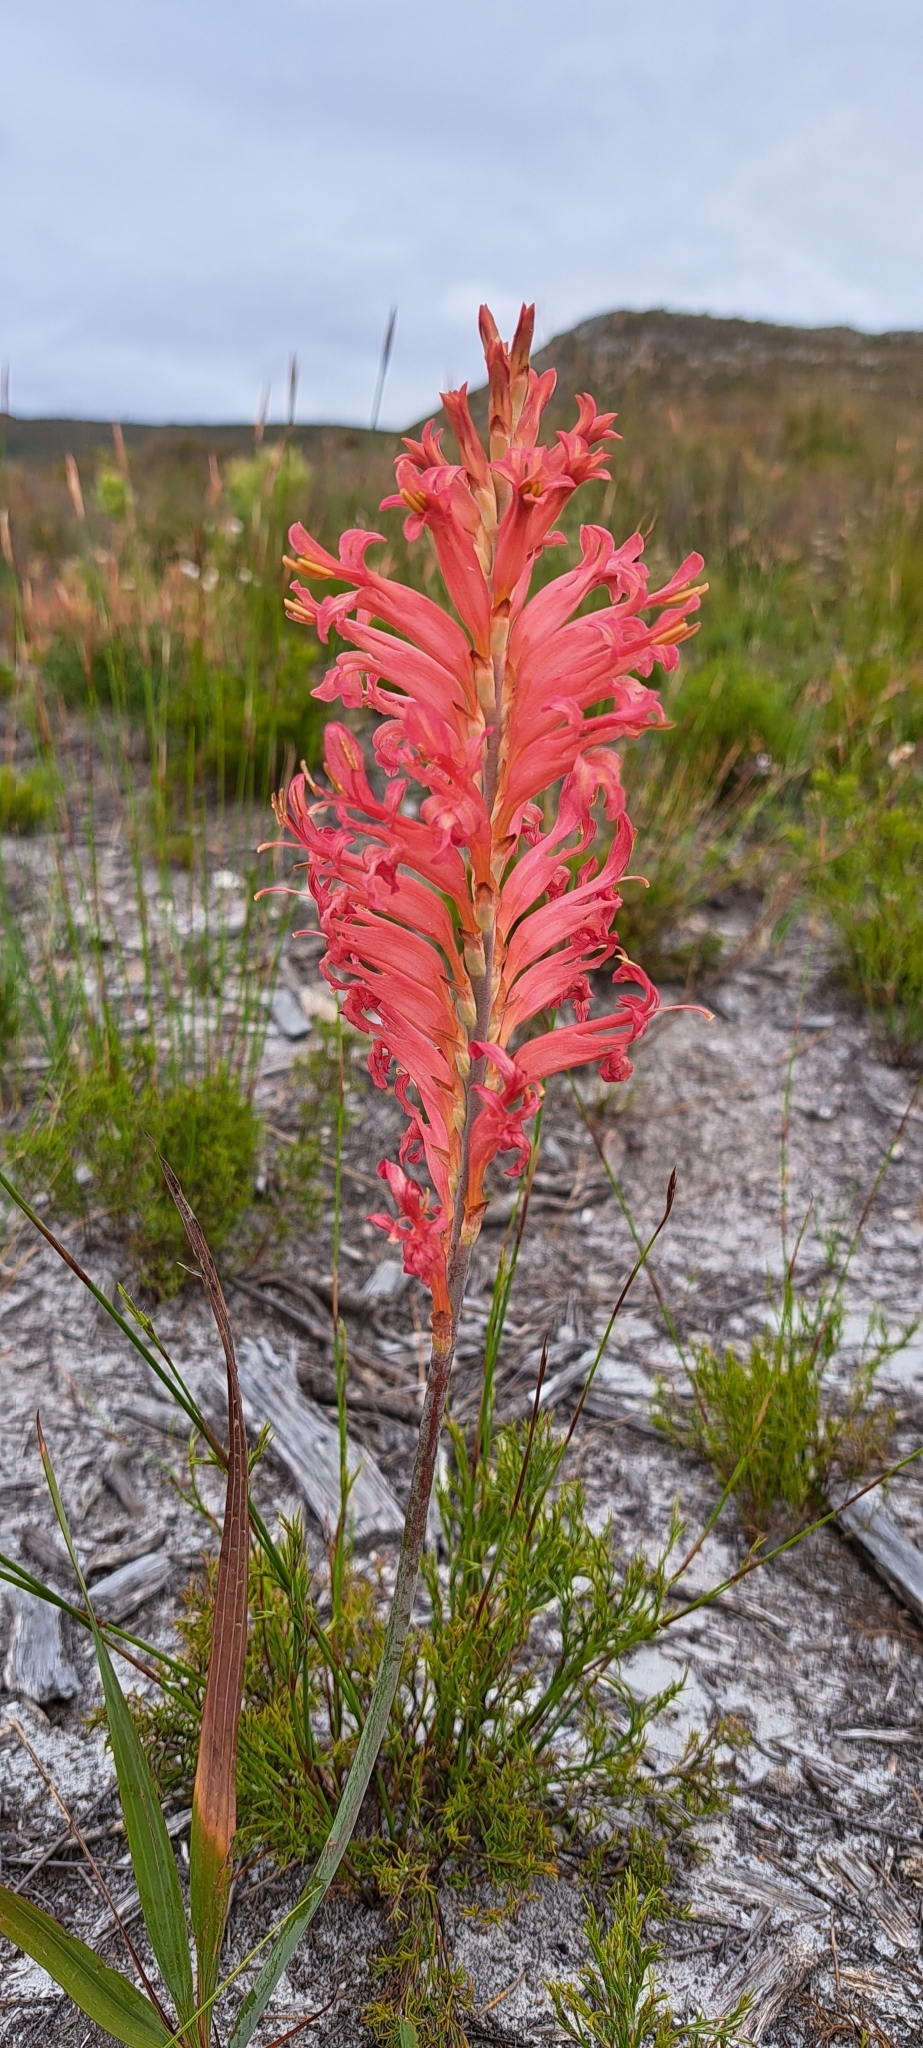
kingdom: Plantae
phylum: Tracheophyta
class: Liliopsida
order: Asparagales
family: Iridaceae
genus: Tritoniopsis
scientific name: Tritoniopsis antholyza
